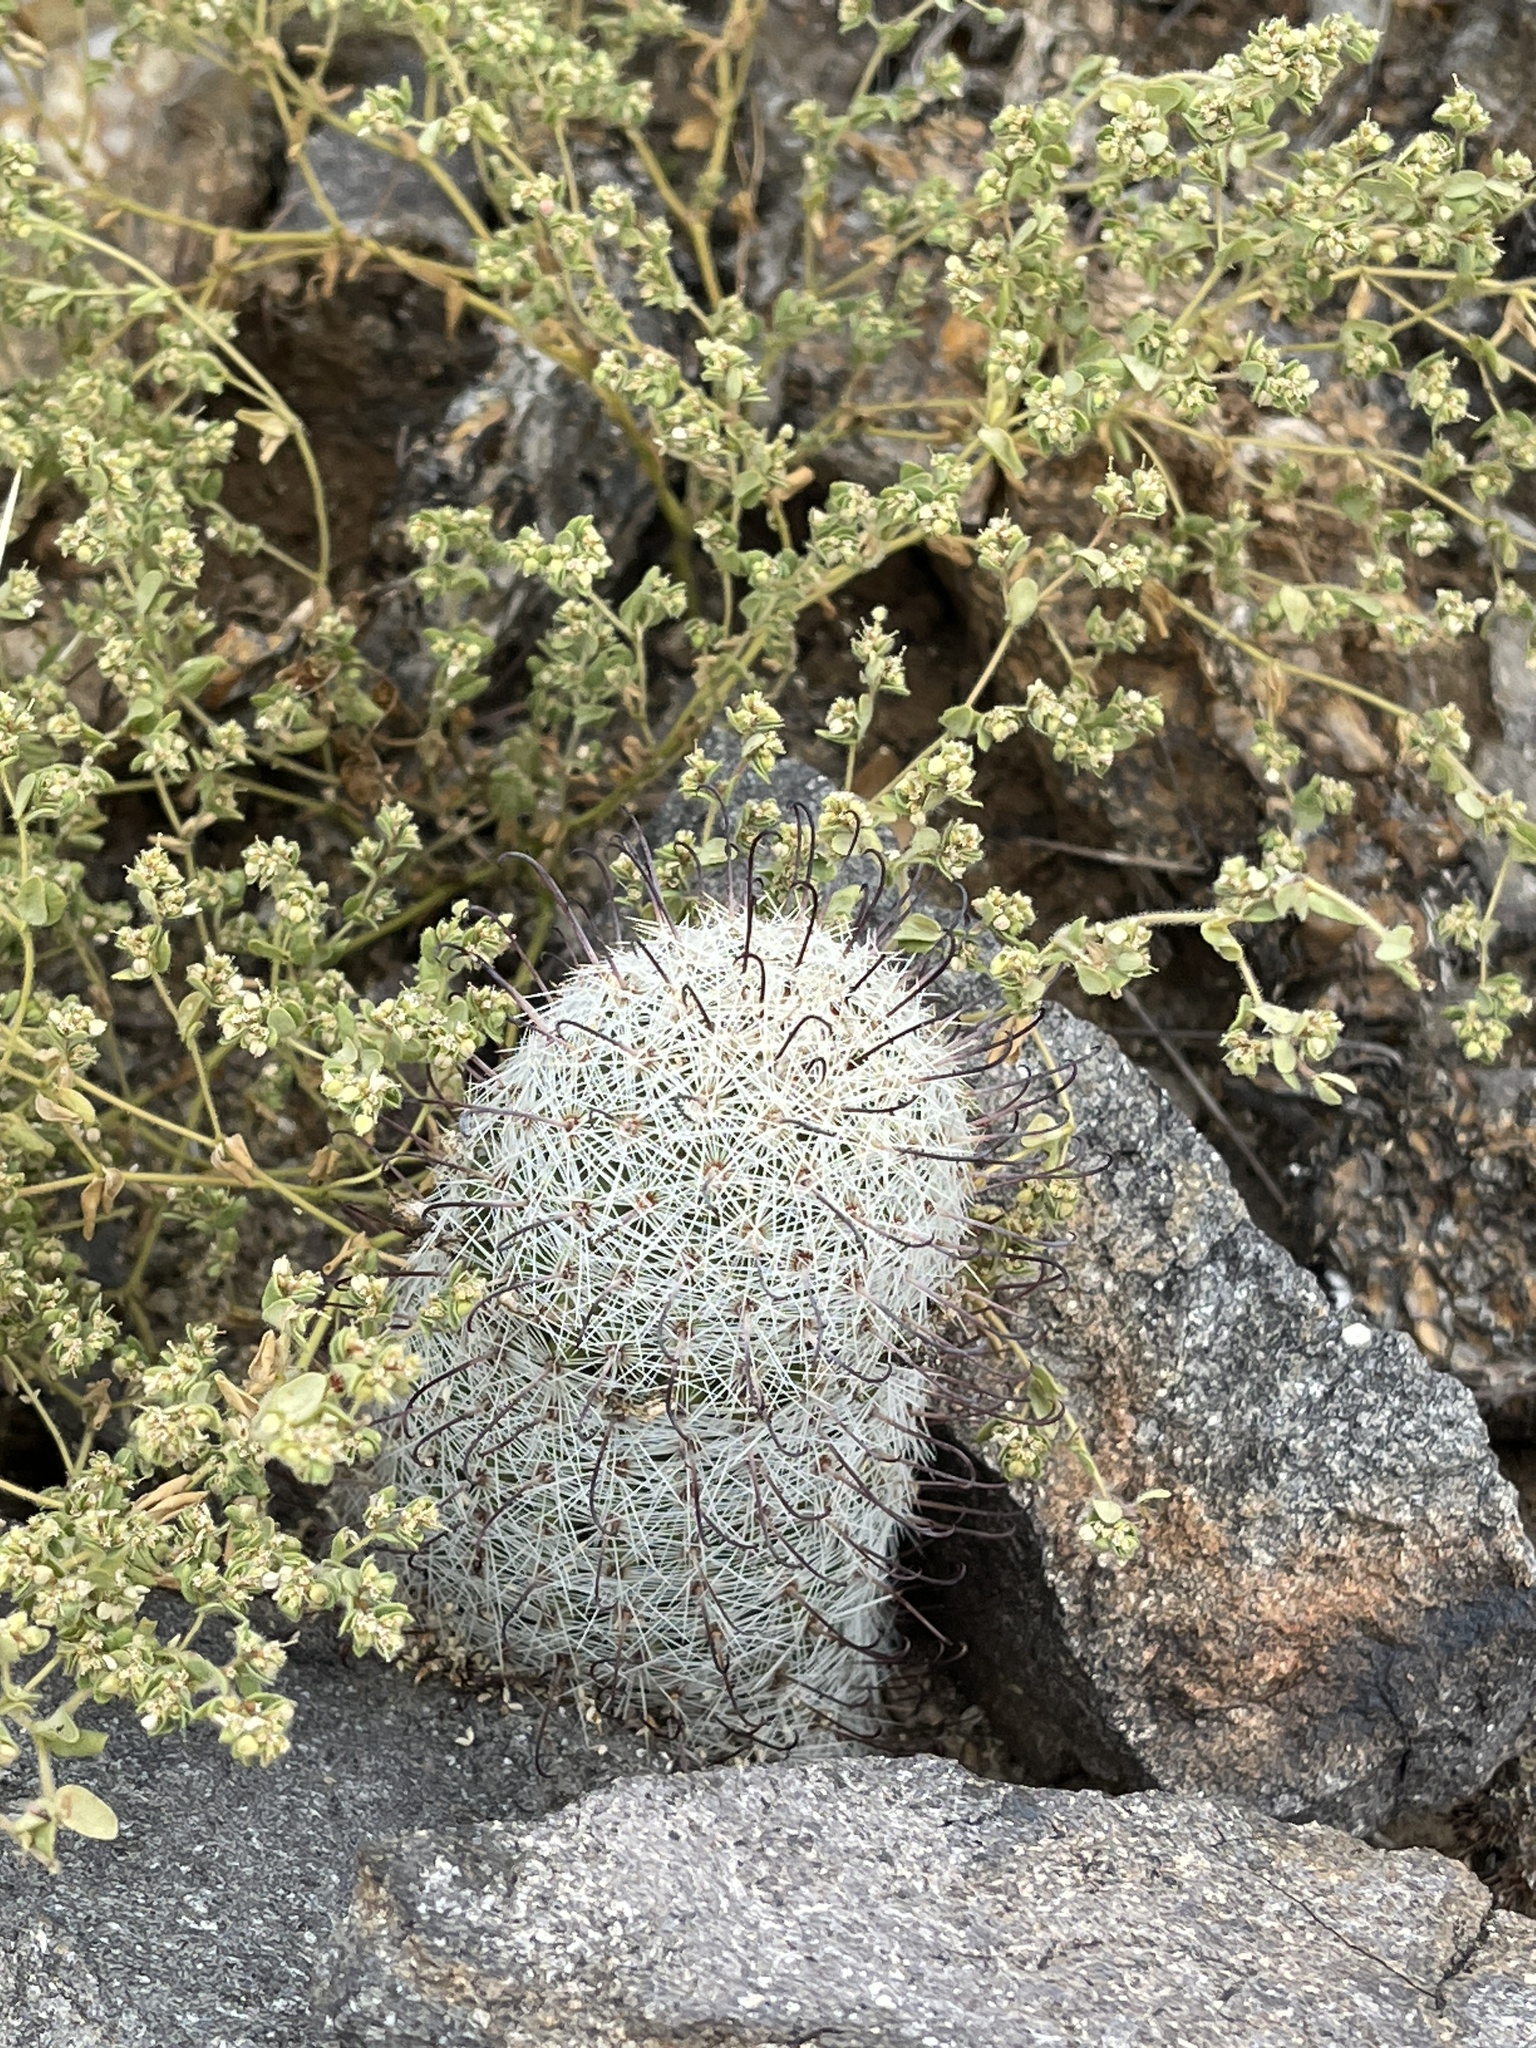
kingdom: Plantae
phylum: Tracheophyta
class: Magnoliopsida
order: Caryophyllales
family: Cactaceae
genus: Cochemiea
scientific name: Cochemiea grahamii
